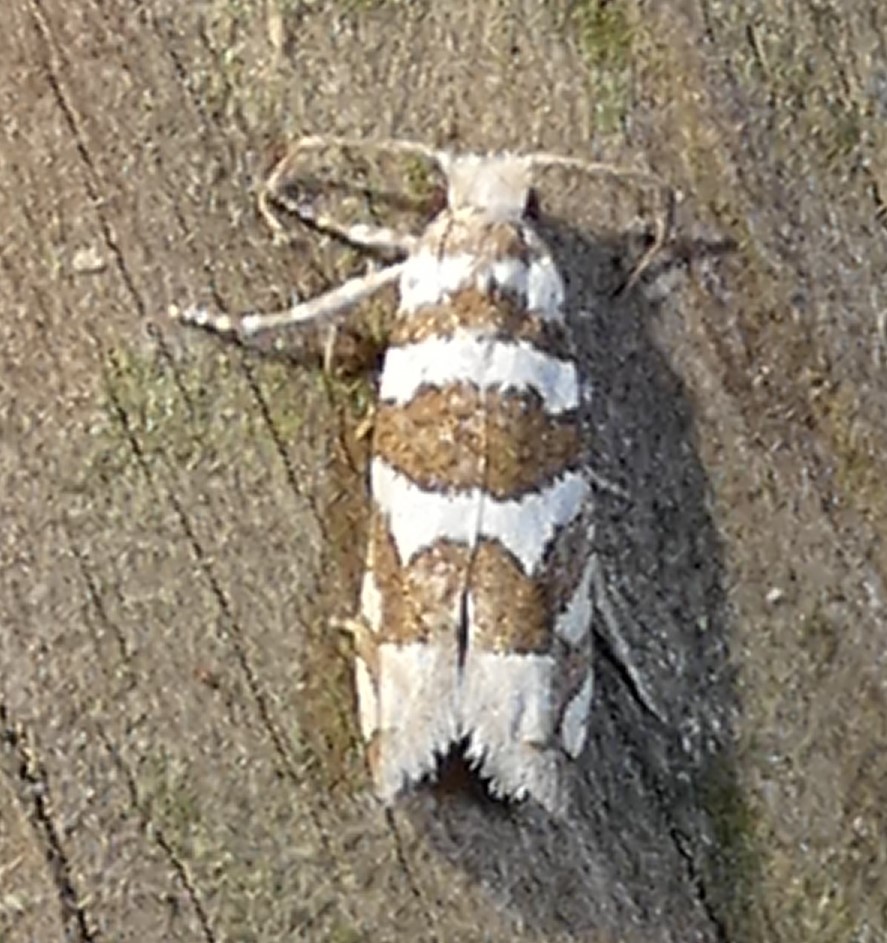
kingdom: Animalia
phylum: Arthropoda
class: Insecta
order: Lepidoptera
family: Tortricidae
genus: Pelochrista
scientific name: Pelochrista robinsonana
